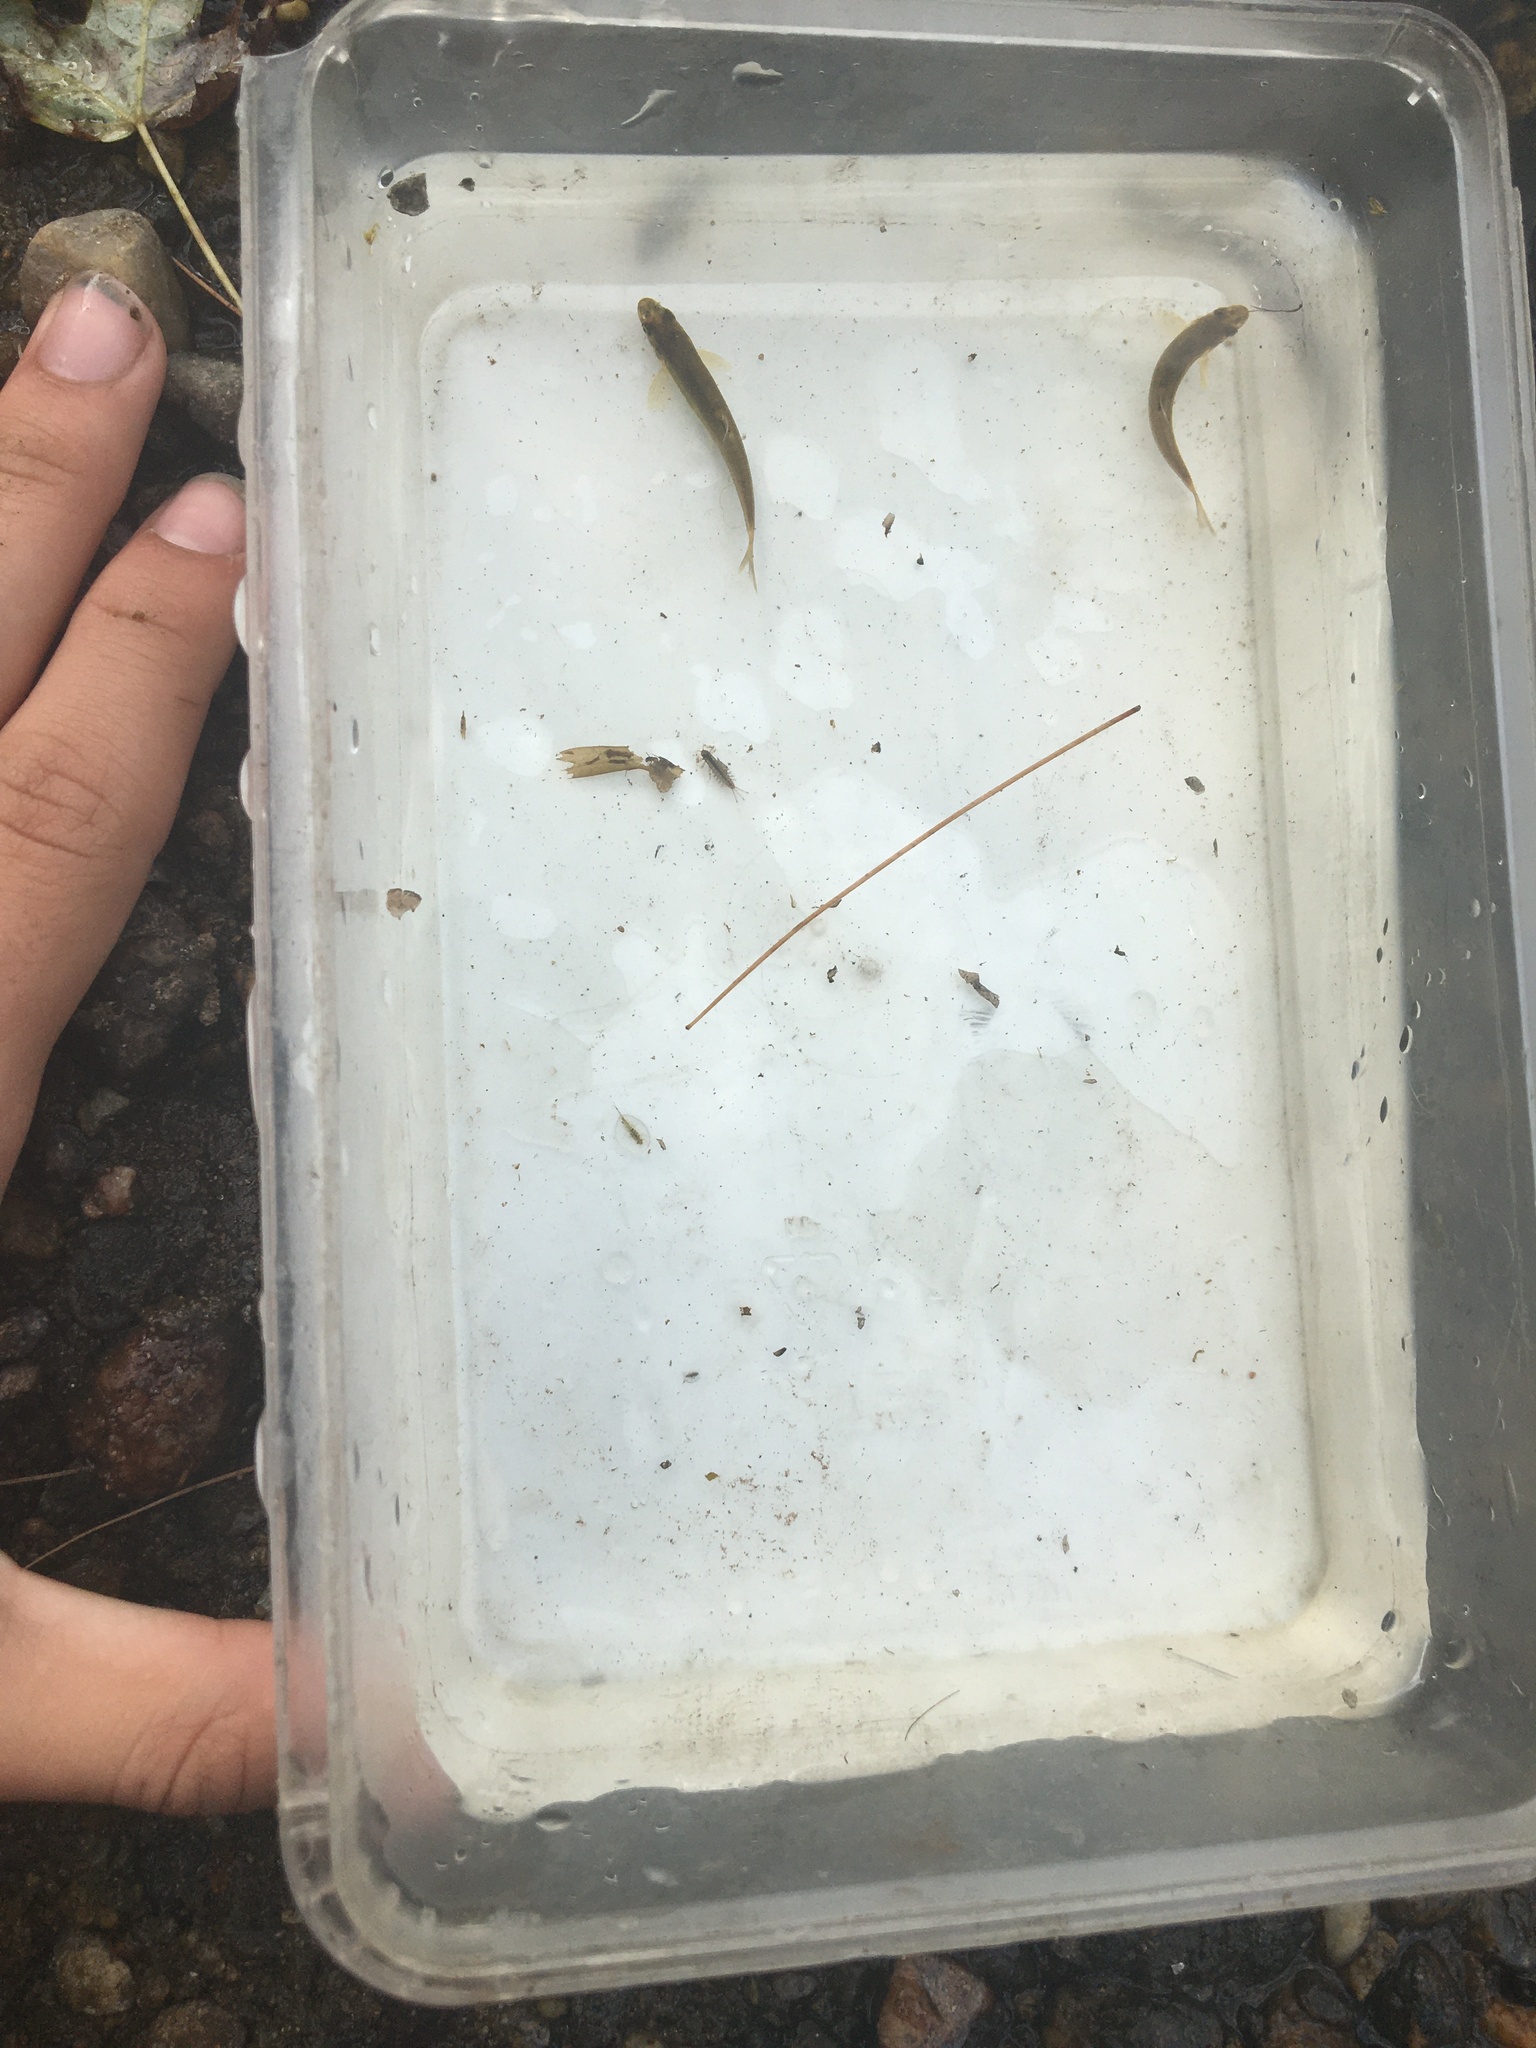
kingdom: Animalia
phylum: Chordata
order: Cypriniformes
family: Cyprinidae
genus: Rhinichthys
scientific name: Rhinichthys cataractae
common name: Longnose dace
